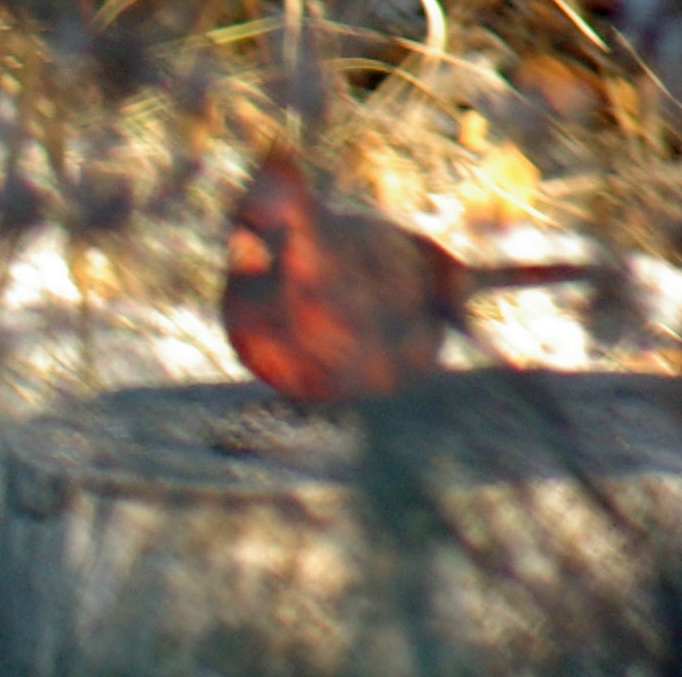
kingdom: Animalia
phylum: Chordata
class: Aves
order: Passeriformes
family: Cardinalidae
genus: Cardinalis
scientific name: Cardinalis cardinalis
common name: Northern cardinal
